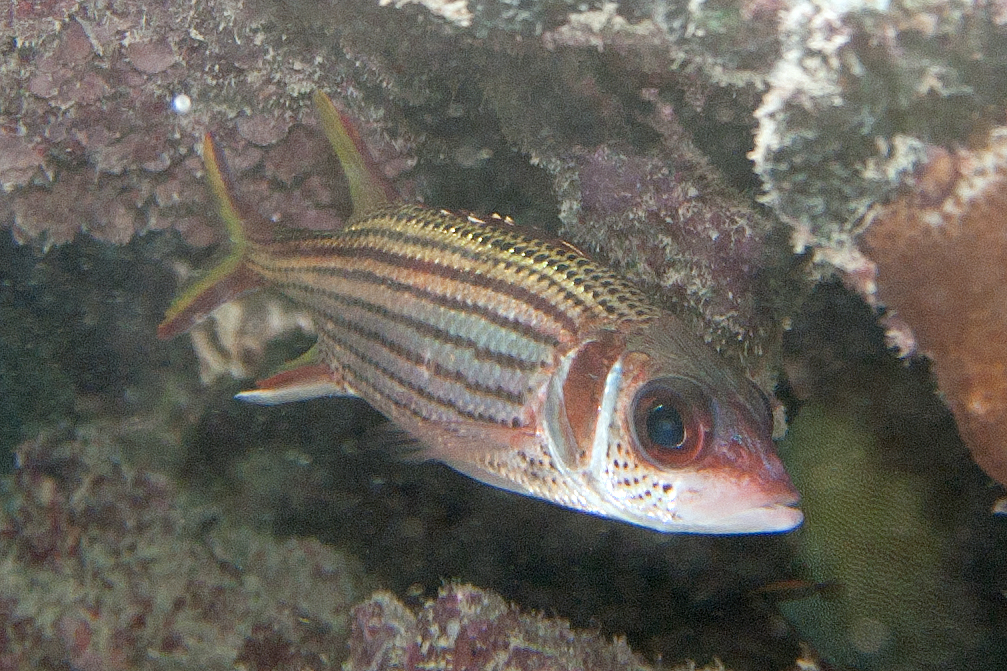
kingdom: Animalia
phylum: Chordata
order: Beryciformes
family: Holocentridae
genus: Neoniphon
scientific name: Neoniphon sammara
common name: Sammara squirrelfish
